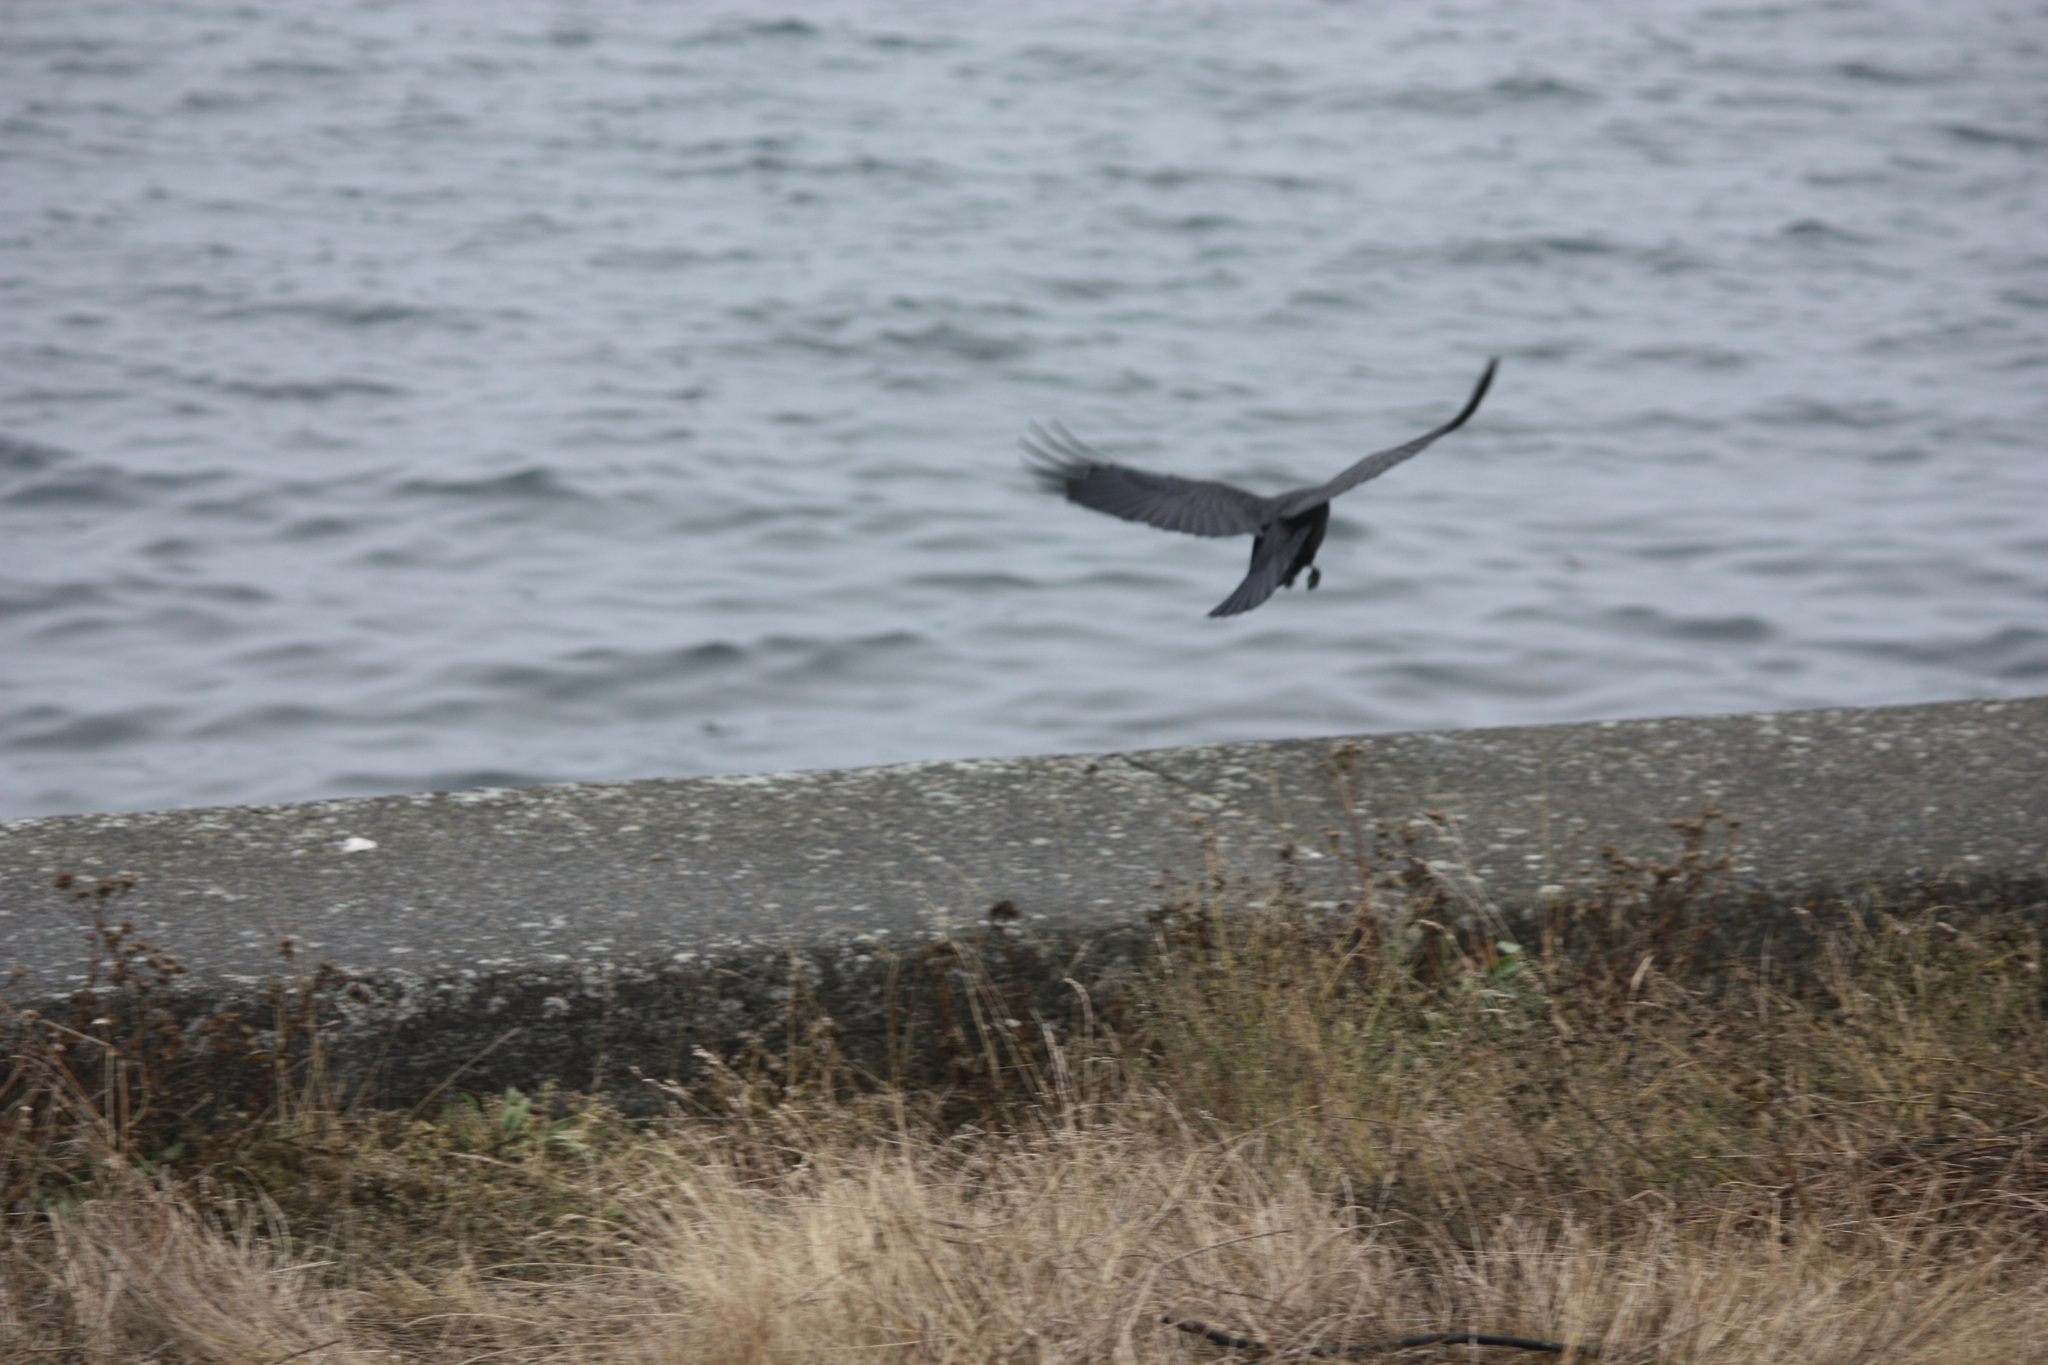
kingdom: Animalia
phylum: Chordata
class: Aves
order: Passeriformes
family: Corvidae
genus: Corvus
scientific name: Corvus brachyrhynchos
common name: American crow
